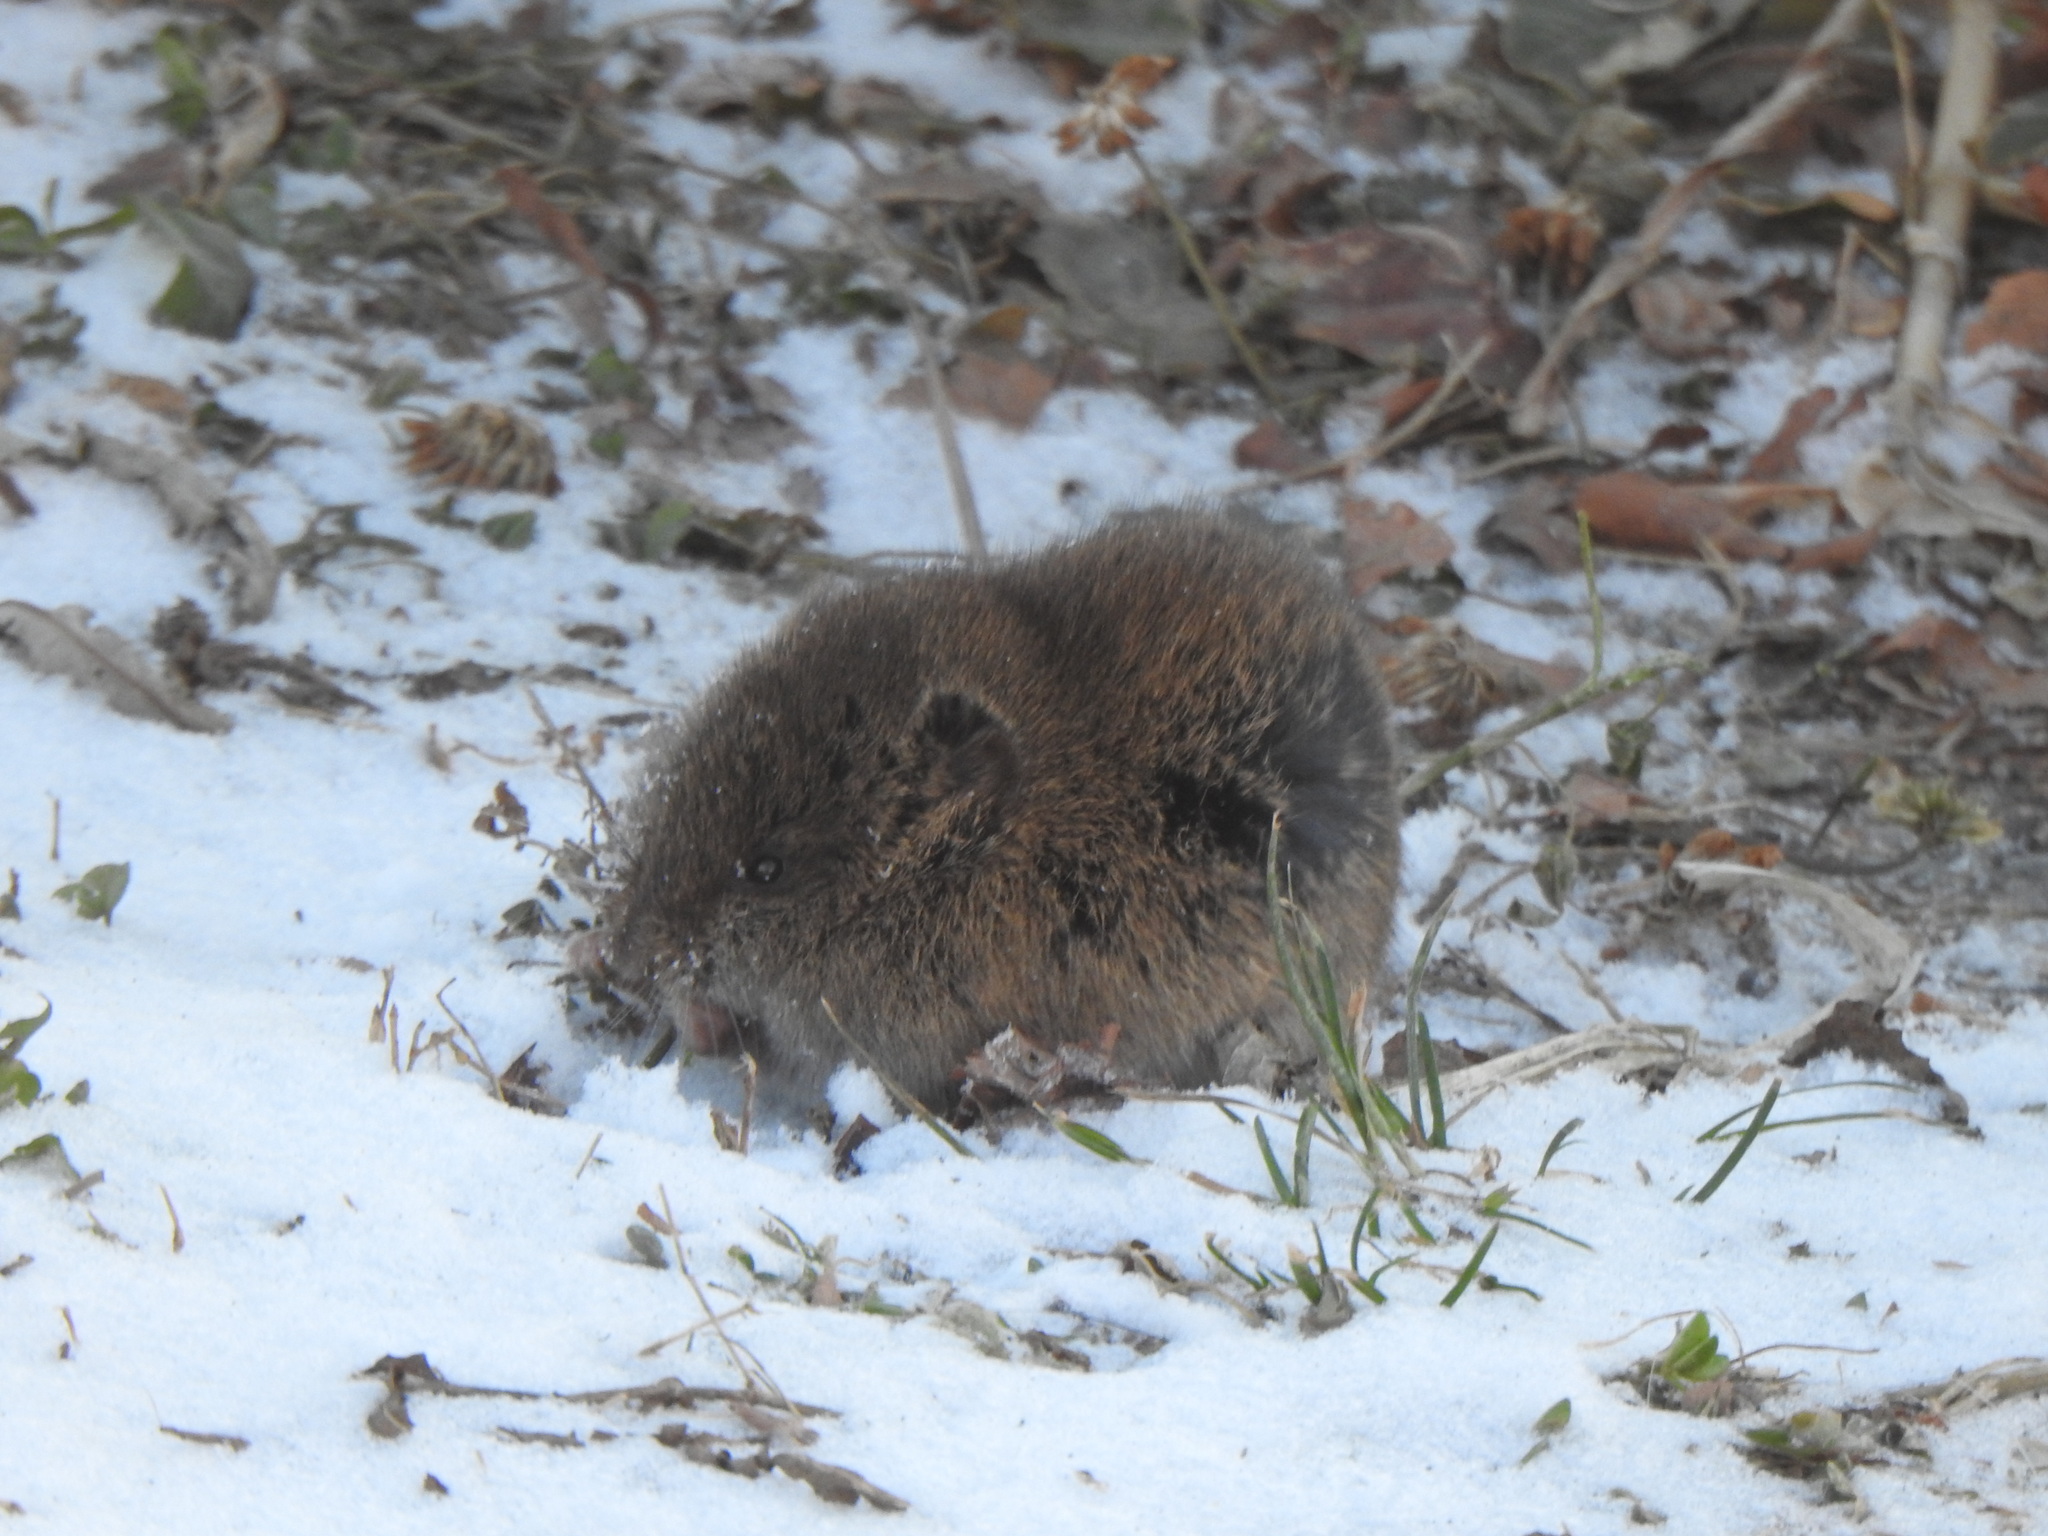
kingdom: Animalia
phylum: Chordata
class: Mammalia
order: Rodentia
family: Cricetidae
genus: Microtus
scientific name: Microtus pennsylvanicus
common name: Meadow vole
